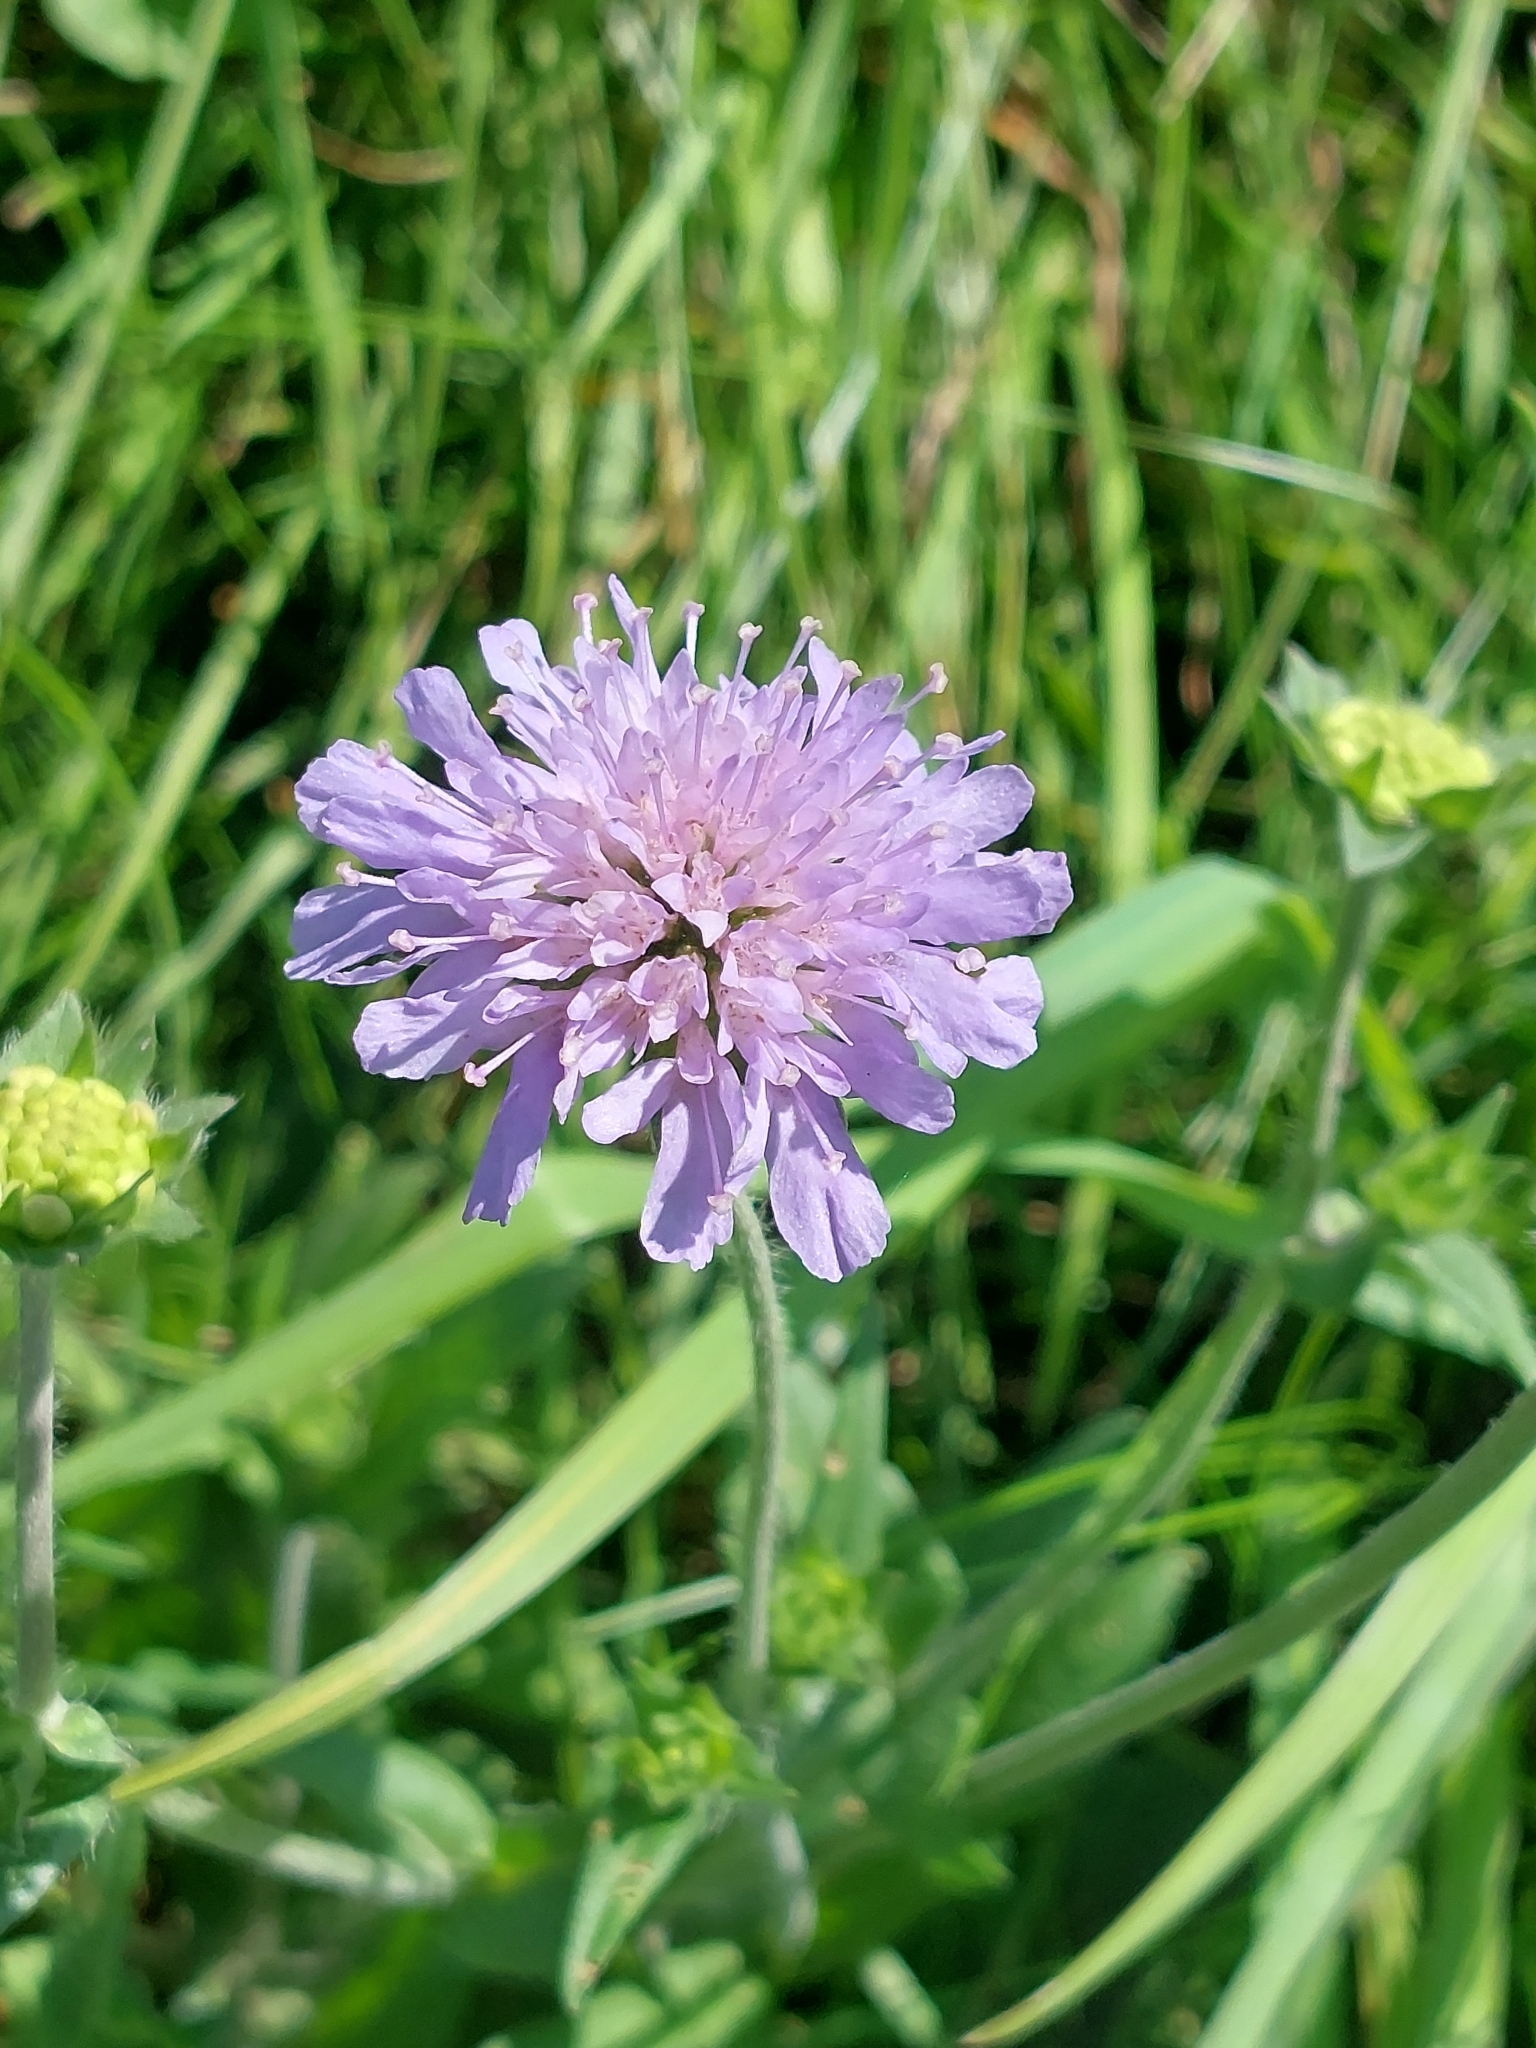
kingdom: Plantae
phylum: Tracheophyta
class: Magnoliopsida
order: Dipsacales
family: Caprifoliaceae
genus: Knautia
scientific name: Knautia arvensis
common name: Field scabiosa
